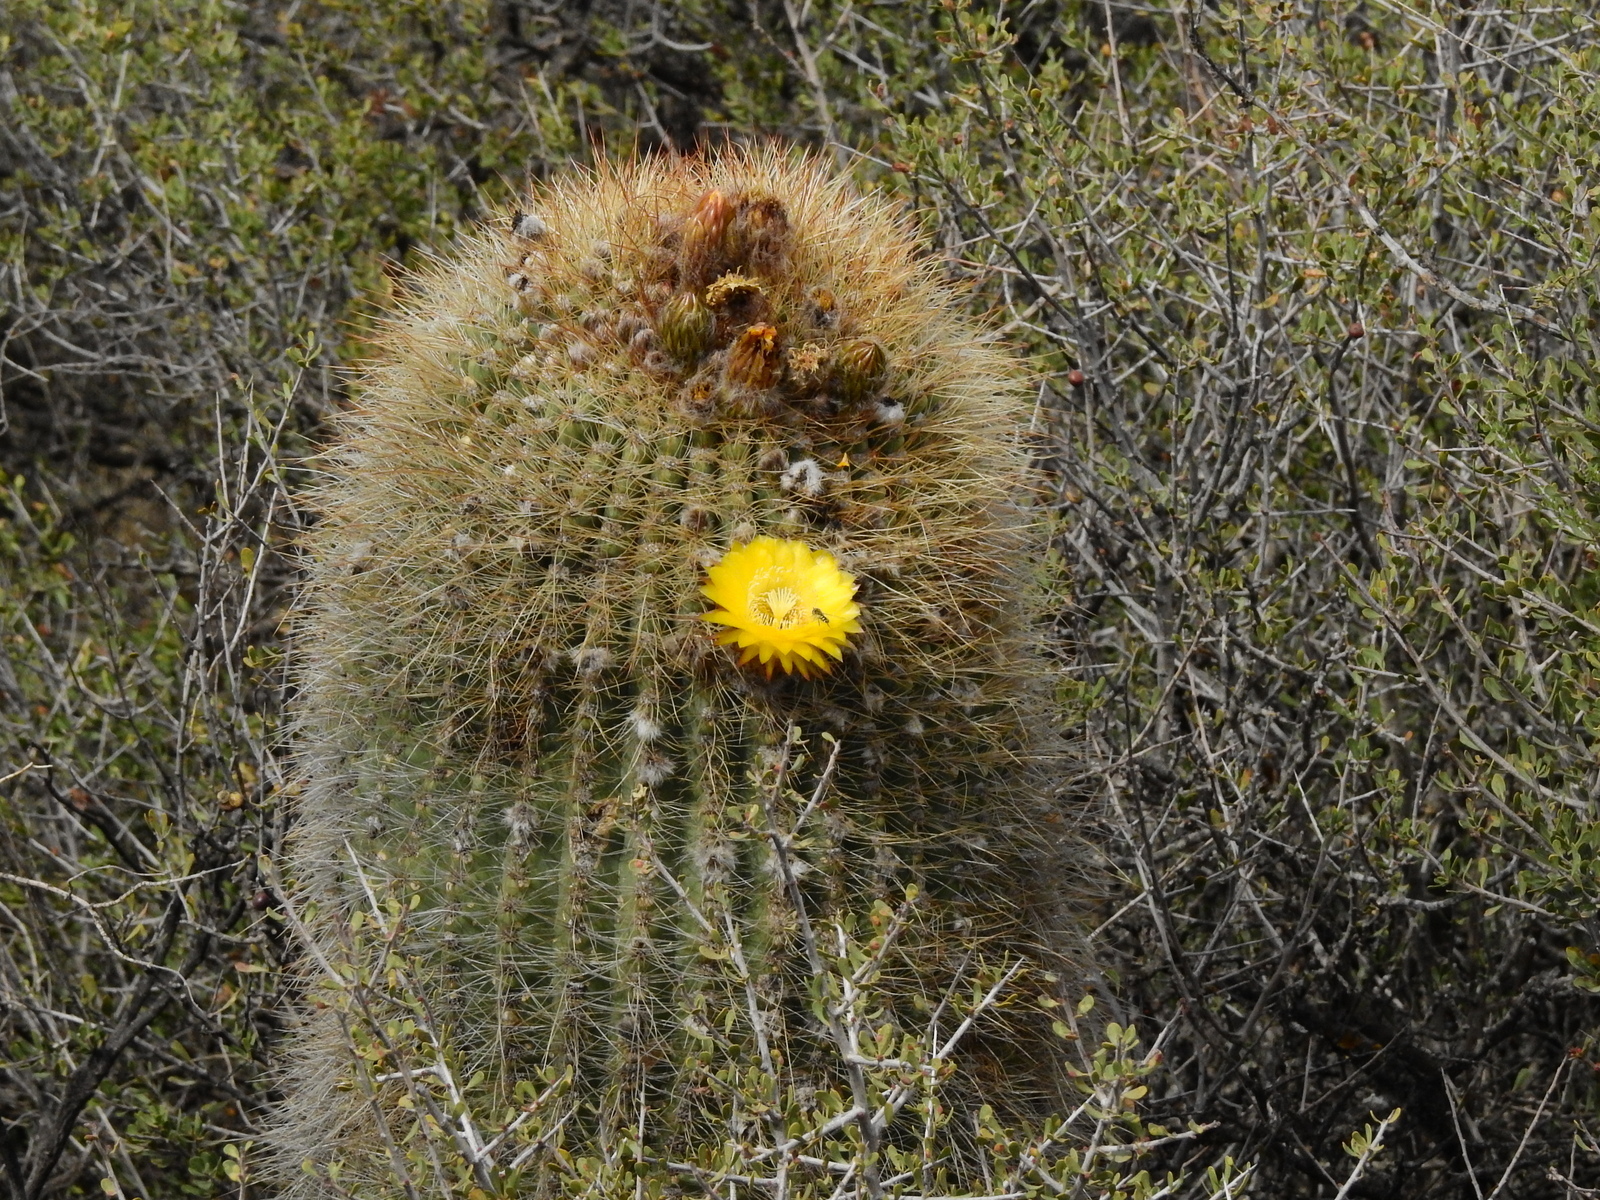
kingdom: Plantae
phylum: Tracheophyta
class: Magnoliopsida
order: Caryophyllales
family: Cactaceae
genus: Soehrensia
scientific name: Soehrensia formosa
